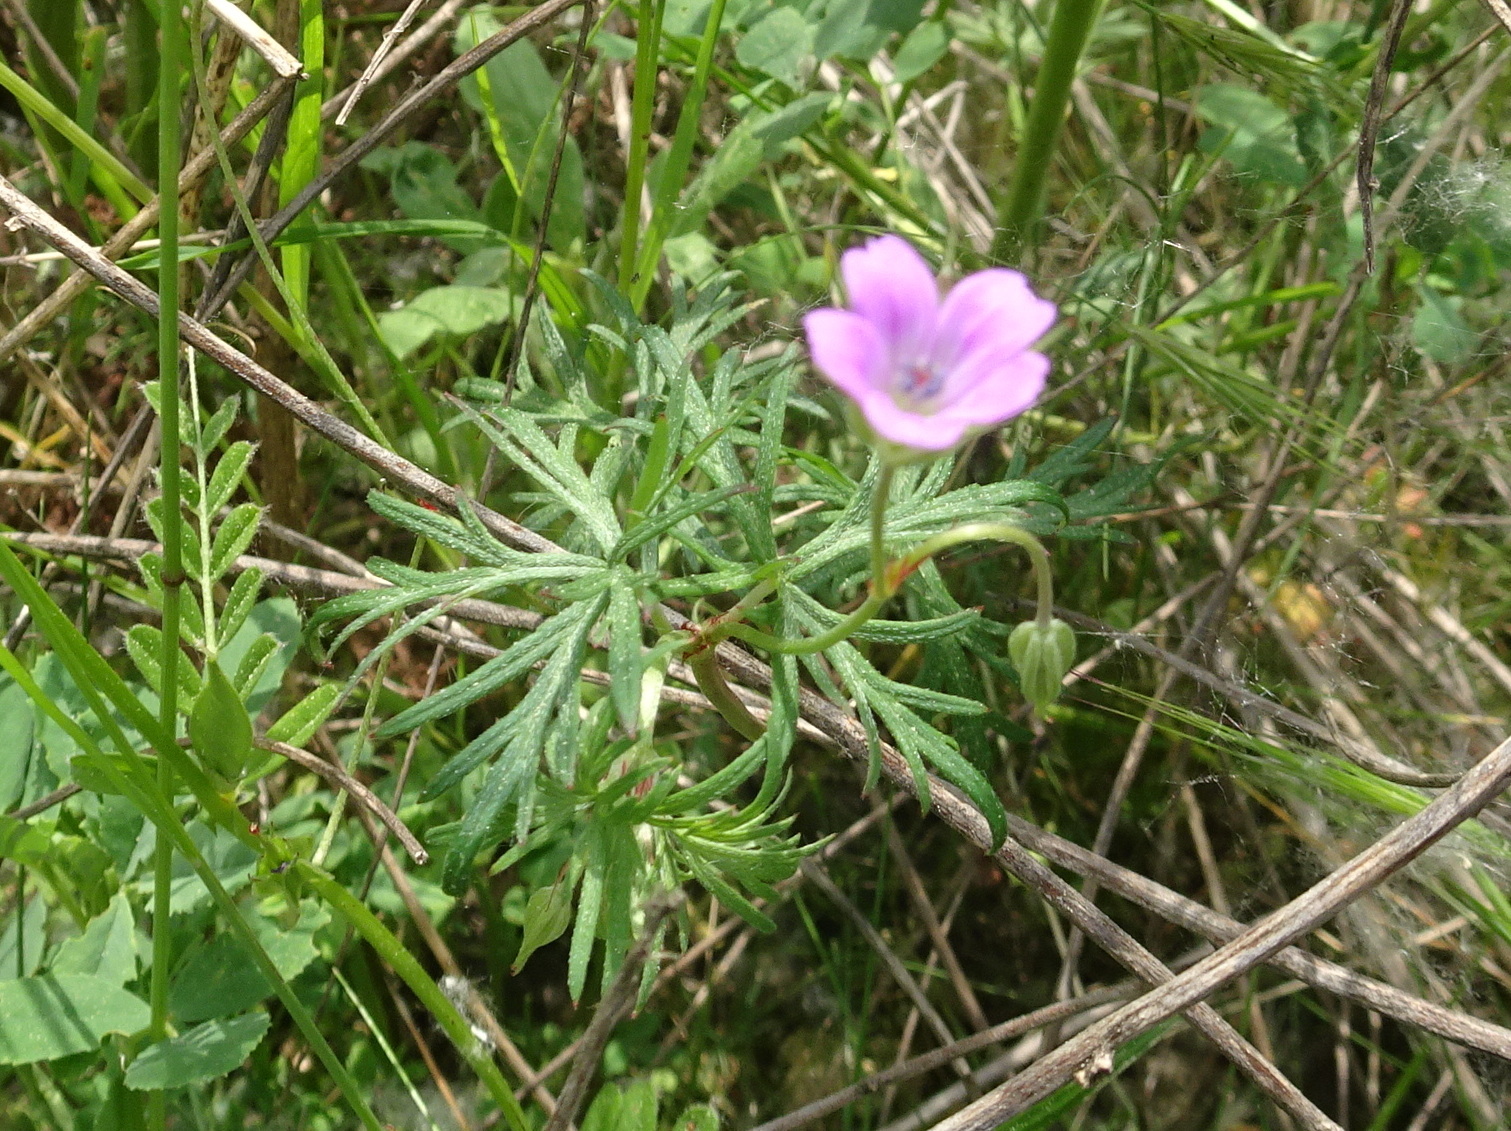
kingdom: Plantae
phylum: Tracheophyta
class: Magnoliopsida
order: Geraniales
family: Geraniaceae
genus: Geranium
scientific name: Geranium columbinum
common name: Long-stalked crane's-bill
